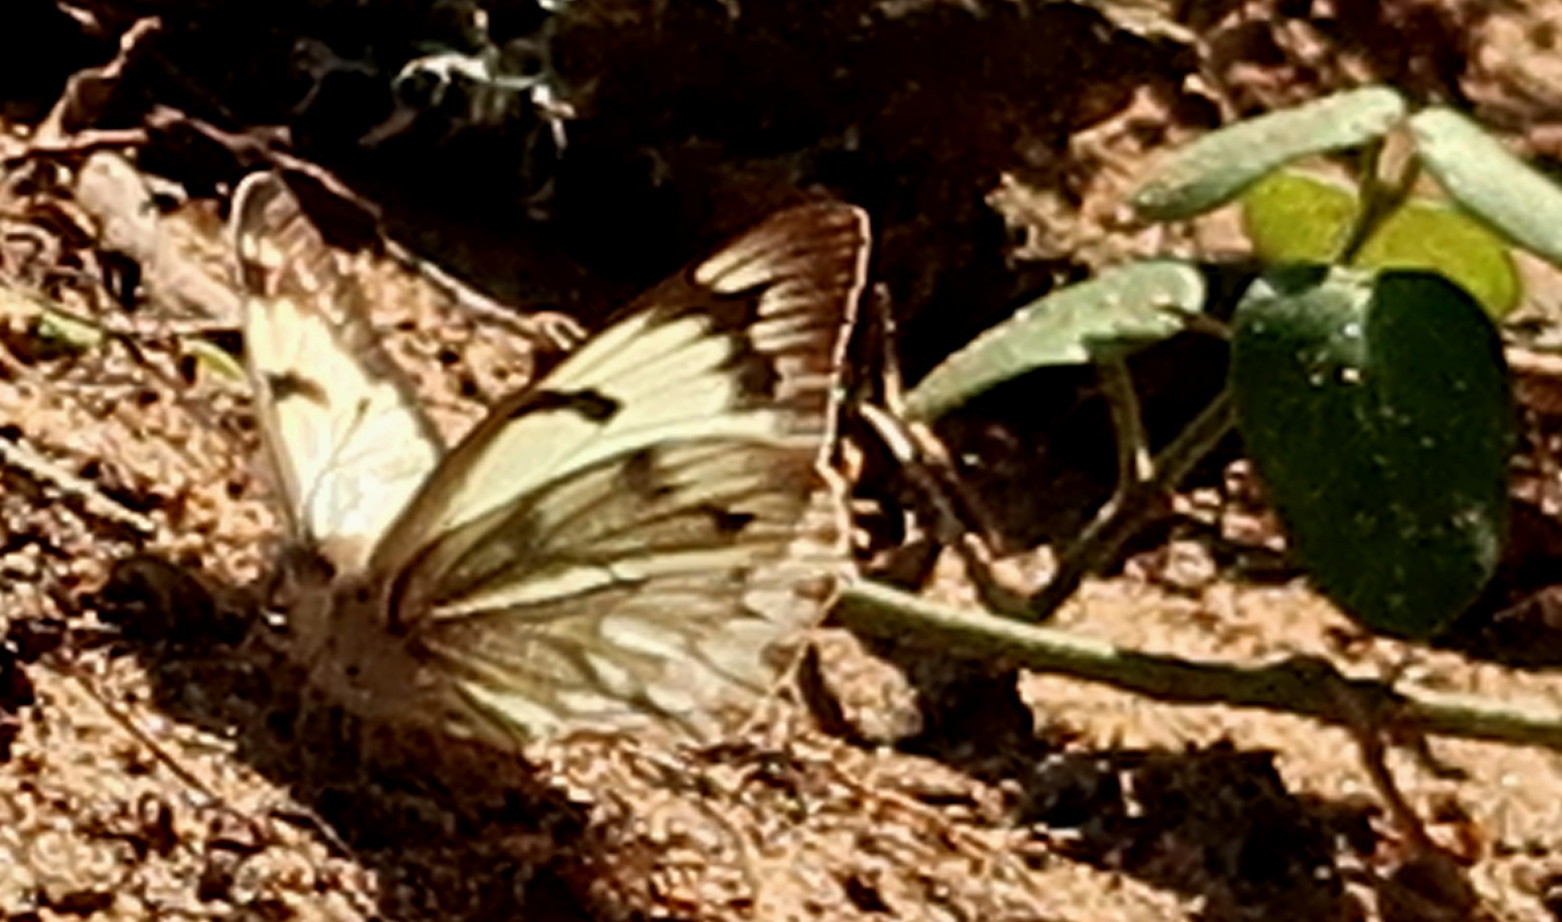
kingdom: Animalia
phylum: Arthropoda
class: Insecta
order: Lepidoptera
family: Pieridae
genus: Belenois
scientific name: Belenois gidica
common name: Pointed caper white
